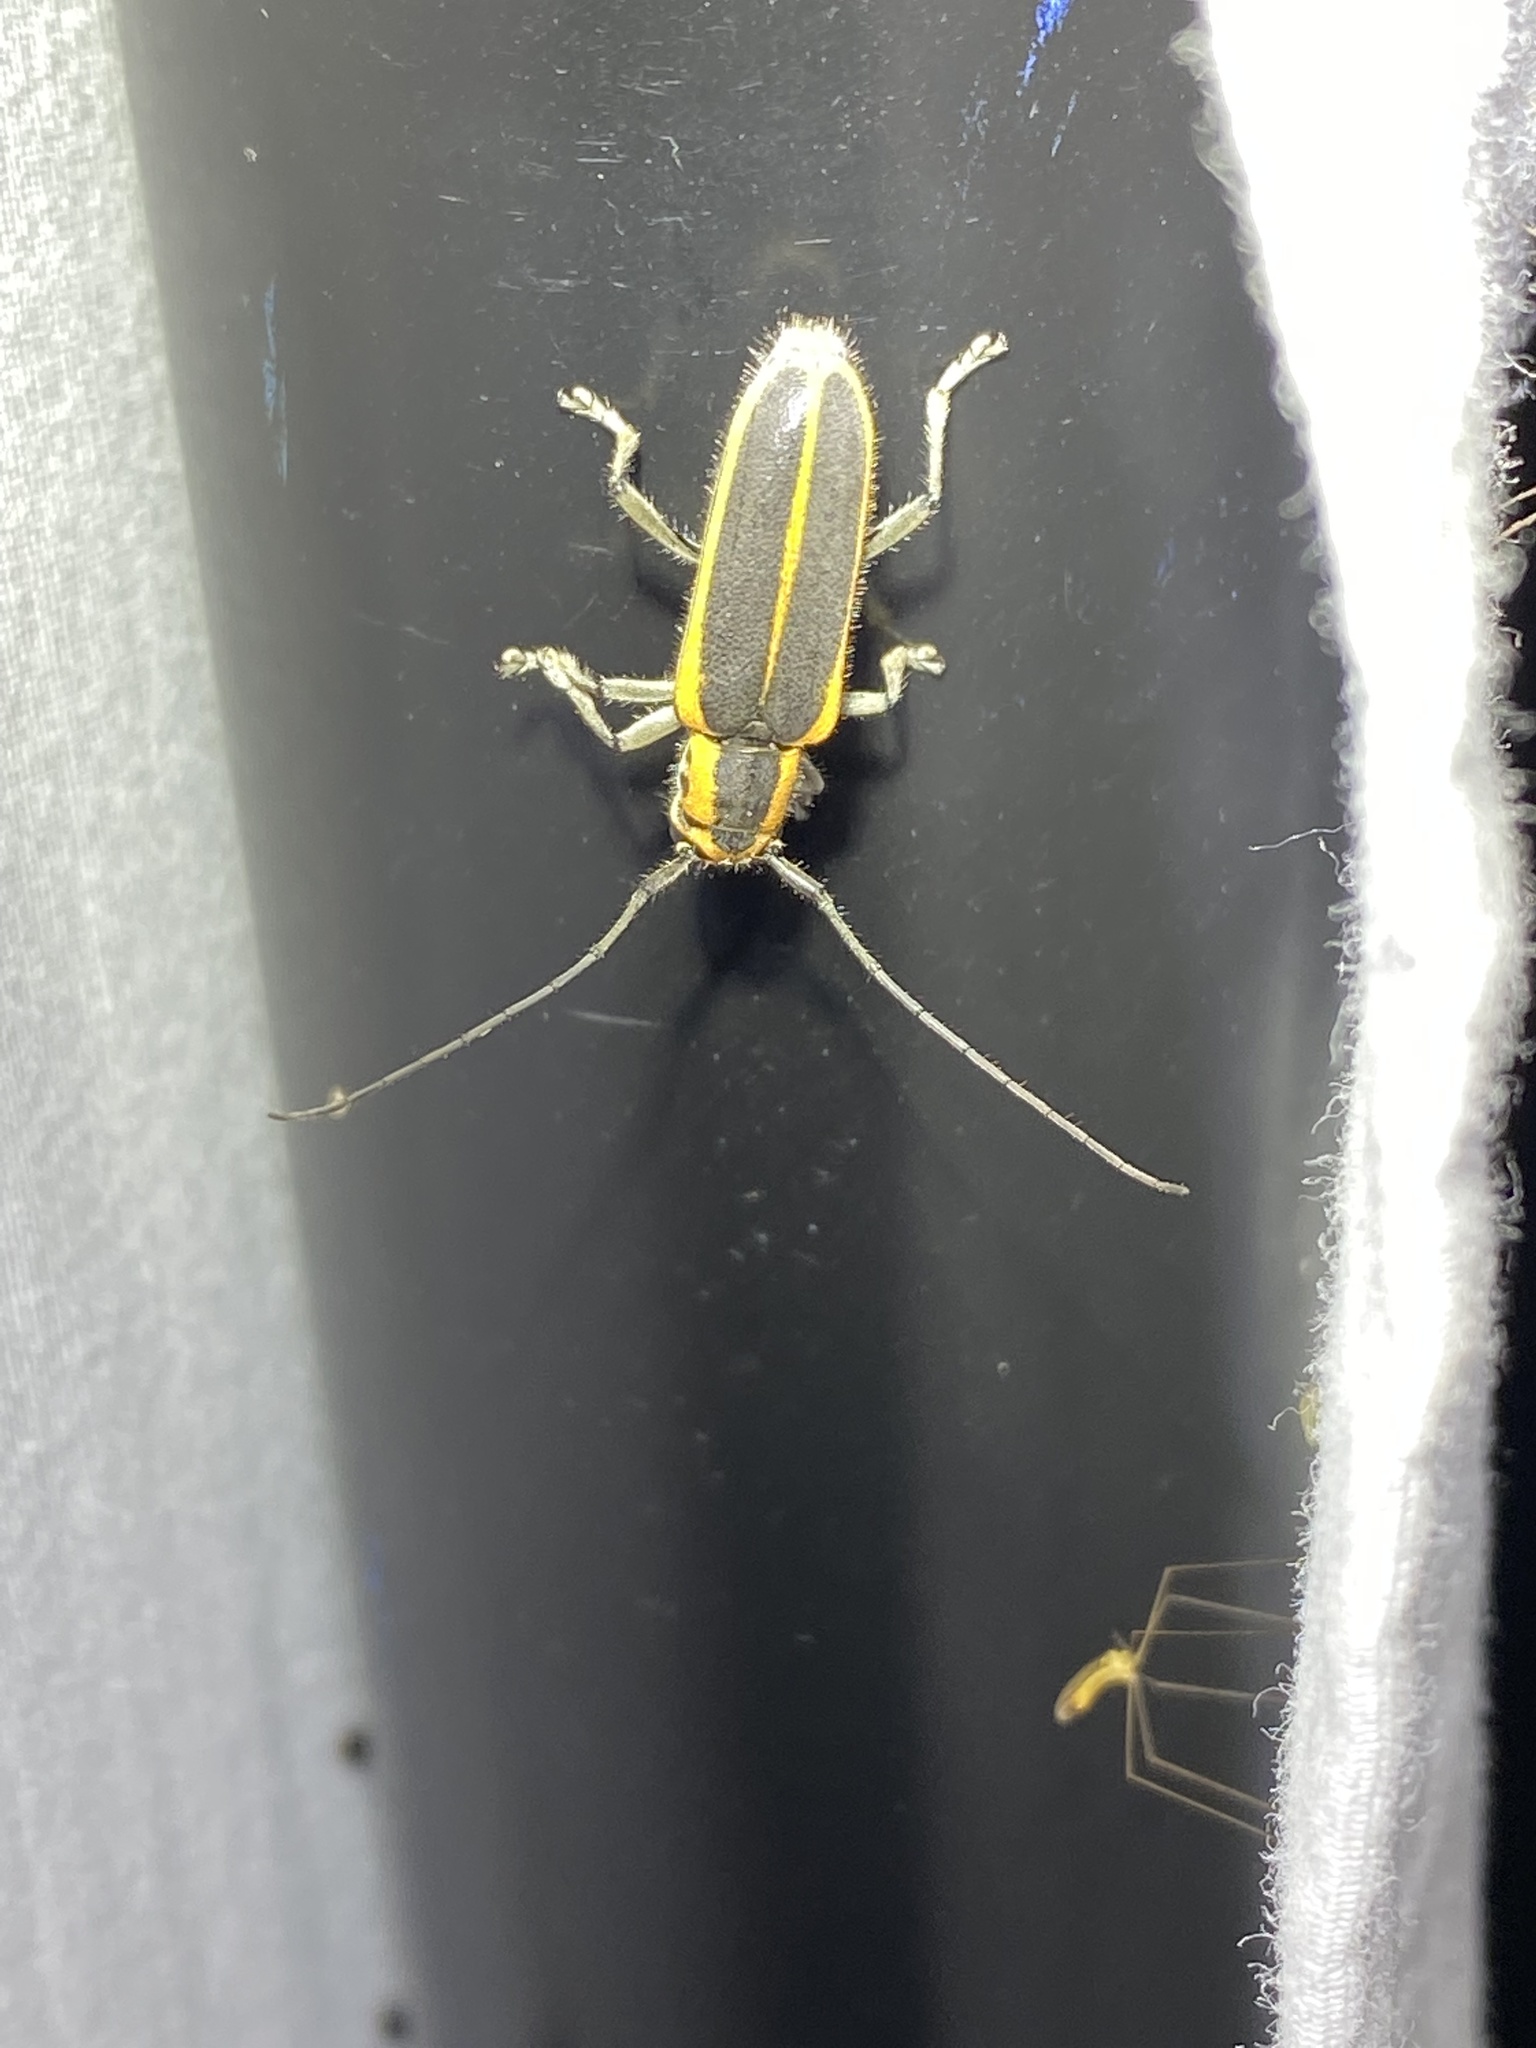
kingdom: Animalia
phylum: Arthropoda
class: Insecta
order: Coleoptera
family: Cerambycidae
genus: Saperda
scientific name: Saperda lateralis
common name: Red-edged saperda
